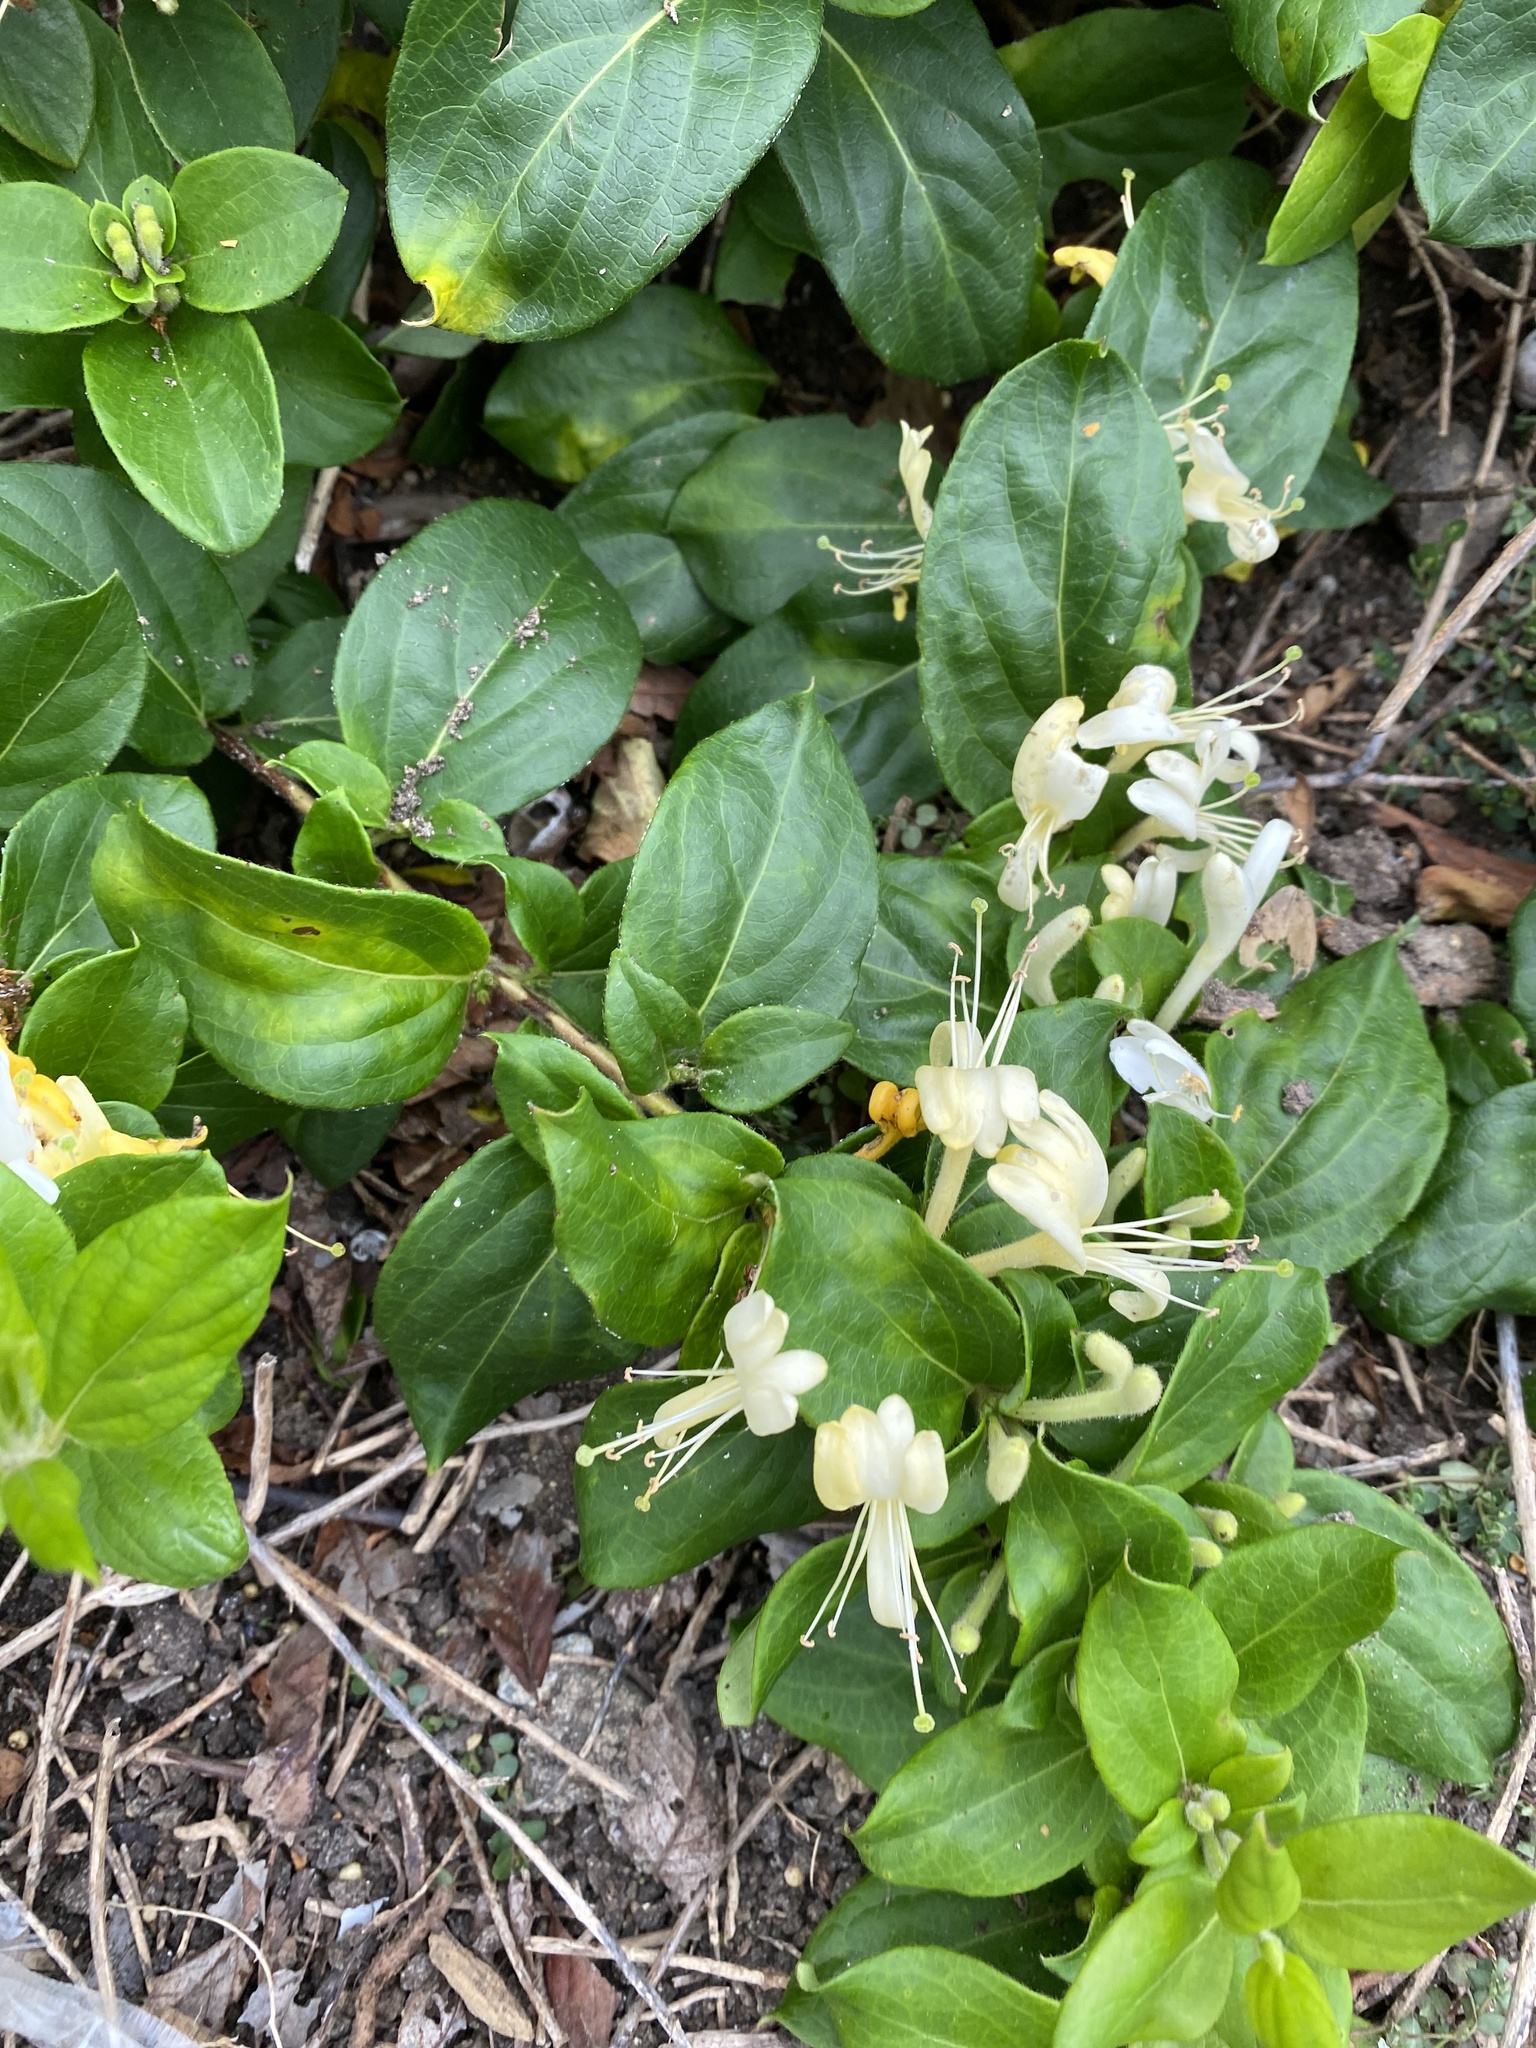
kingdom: Plantae
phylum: Tracheophyta
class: Magnoliopsida
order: Dipsacales
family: Caprifoliaceae
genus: Lonicera
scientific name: Lonicera japonica
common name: Japanese honeysuckle
